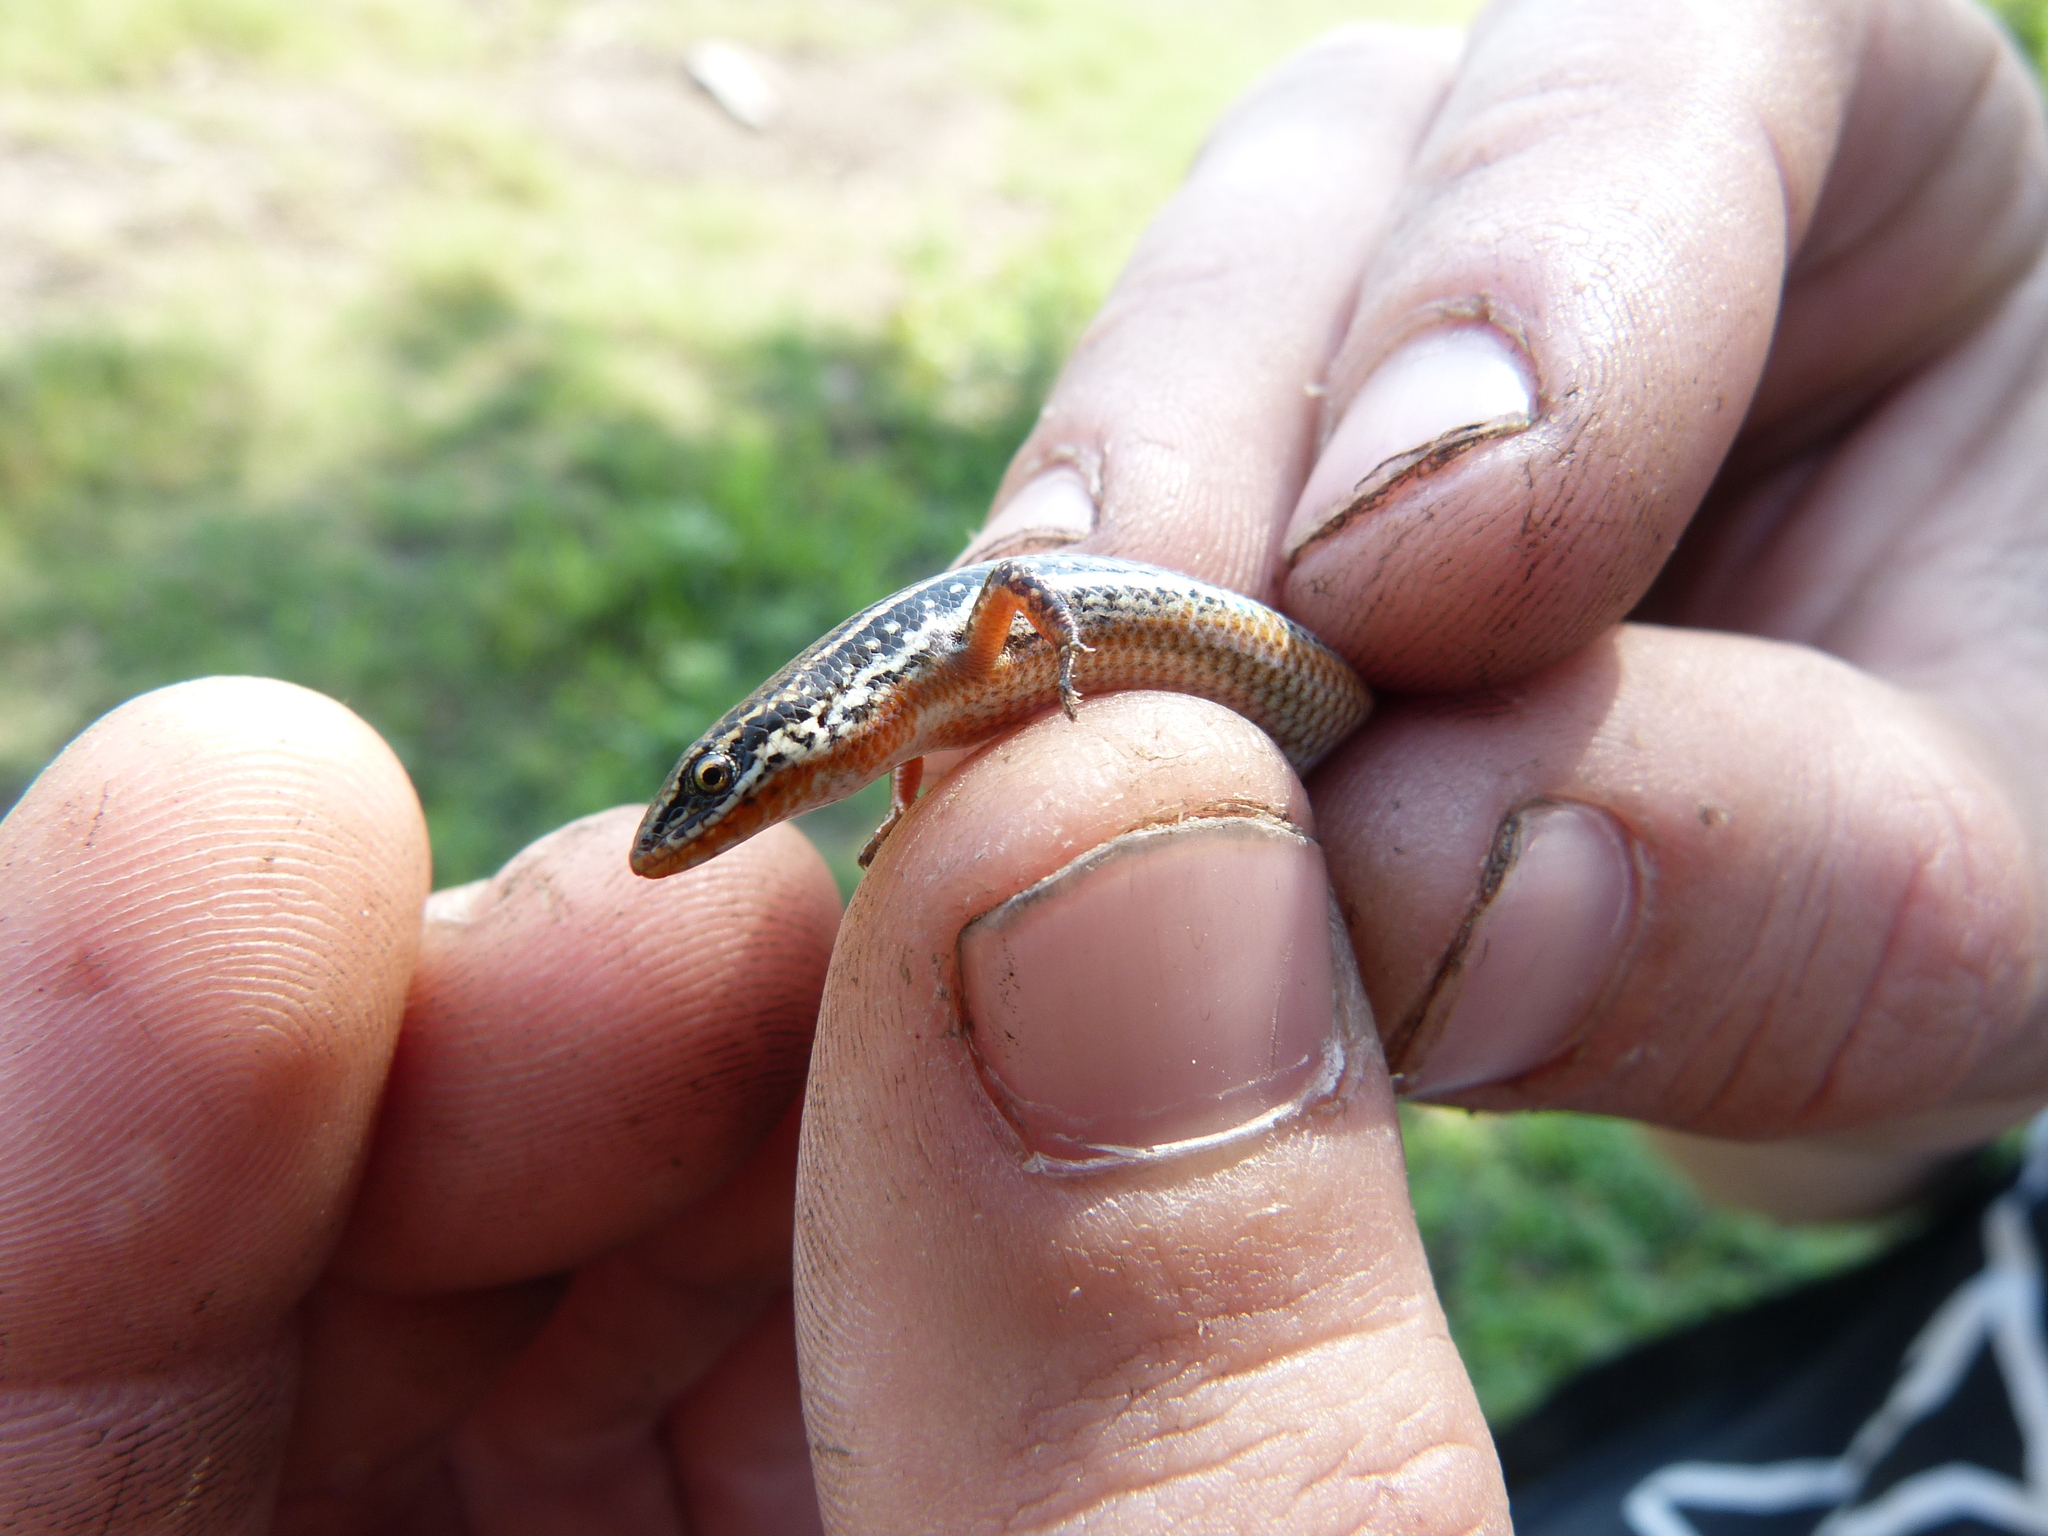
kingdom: Animalia
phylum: Chordata
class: Squamata
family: Scincidae
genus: Panaspis
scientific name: Panaspis wahlbergii
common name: Angolan snake-eyed skink
